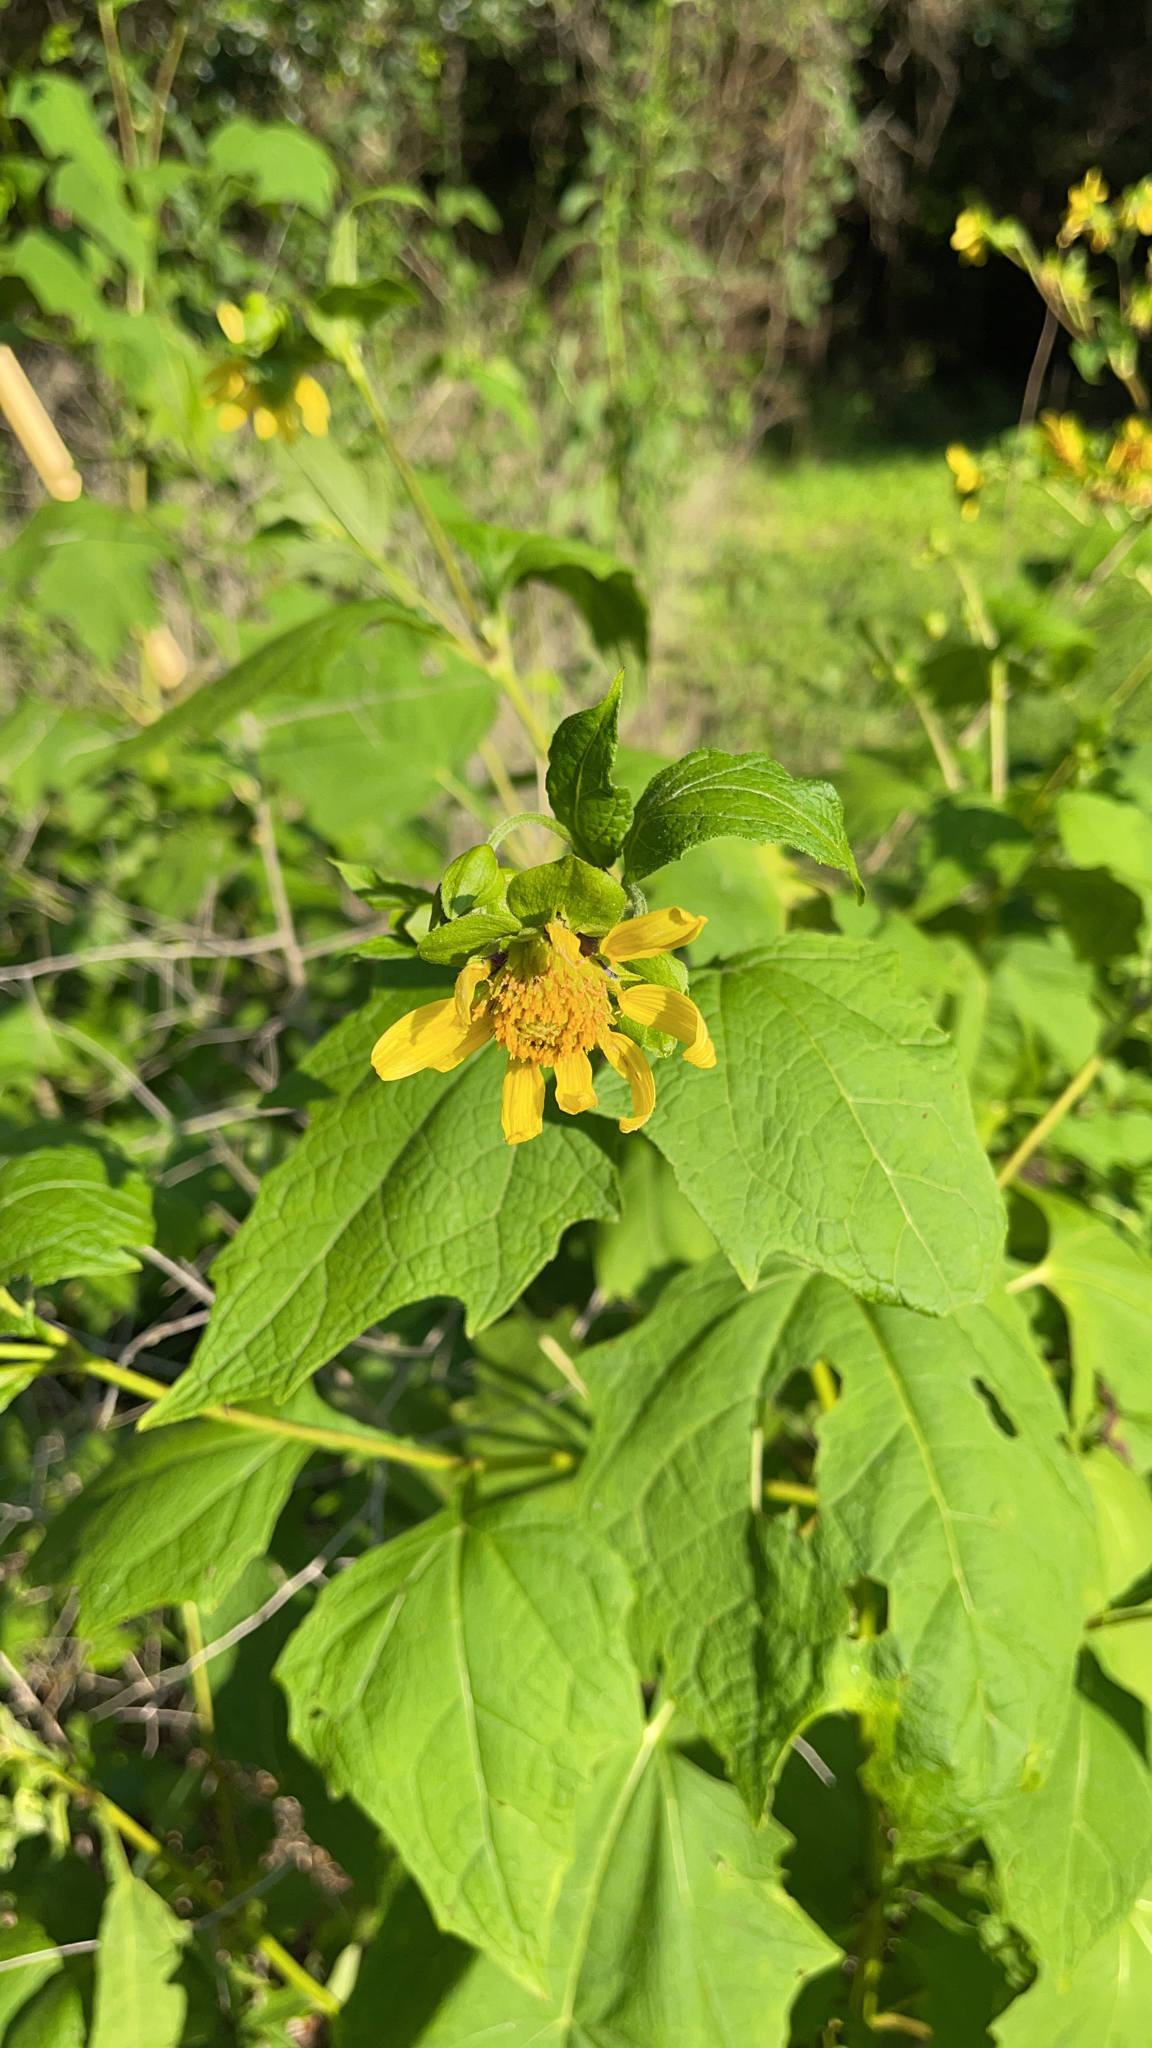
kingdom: Plantae
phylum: Tracheophyta
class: Magnoliopsida
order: Asterales
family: Asteraceae
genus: Smallanthus
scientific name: Smallanthus uvedalia
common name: Bear's-foot
